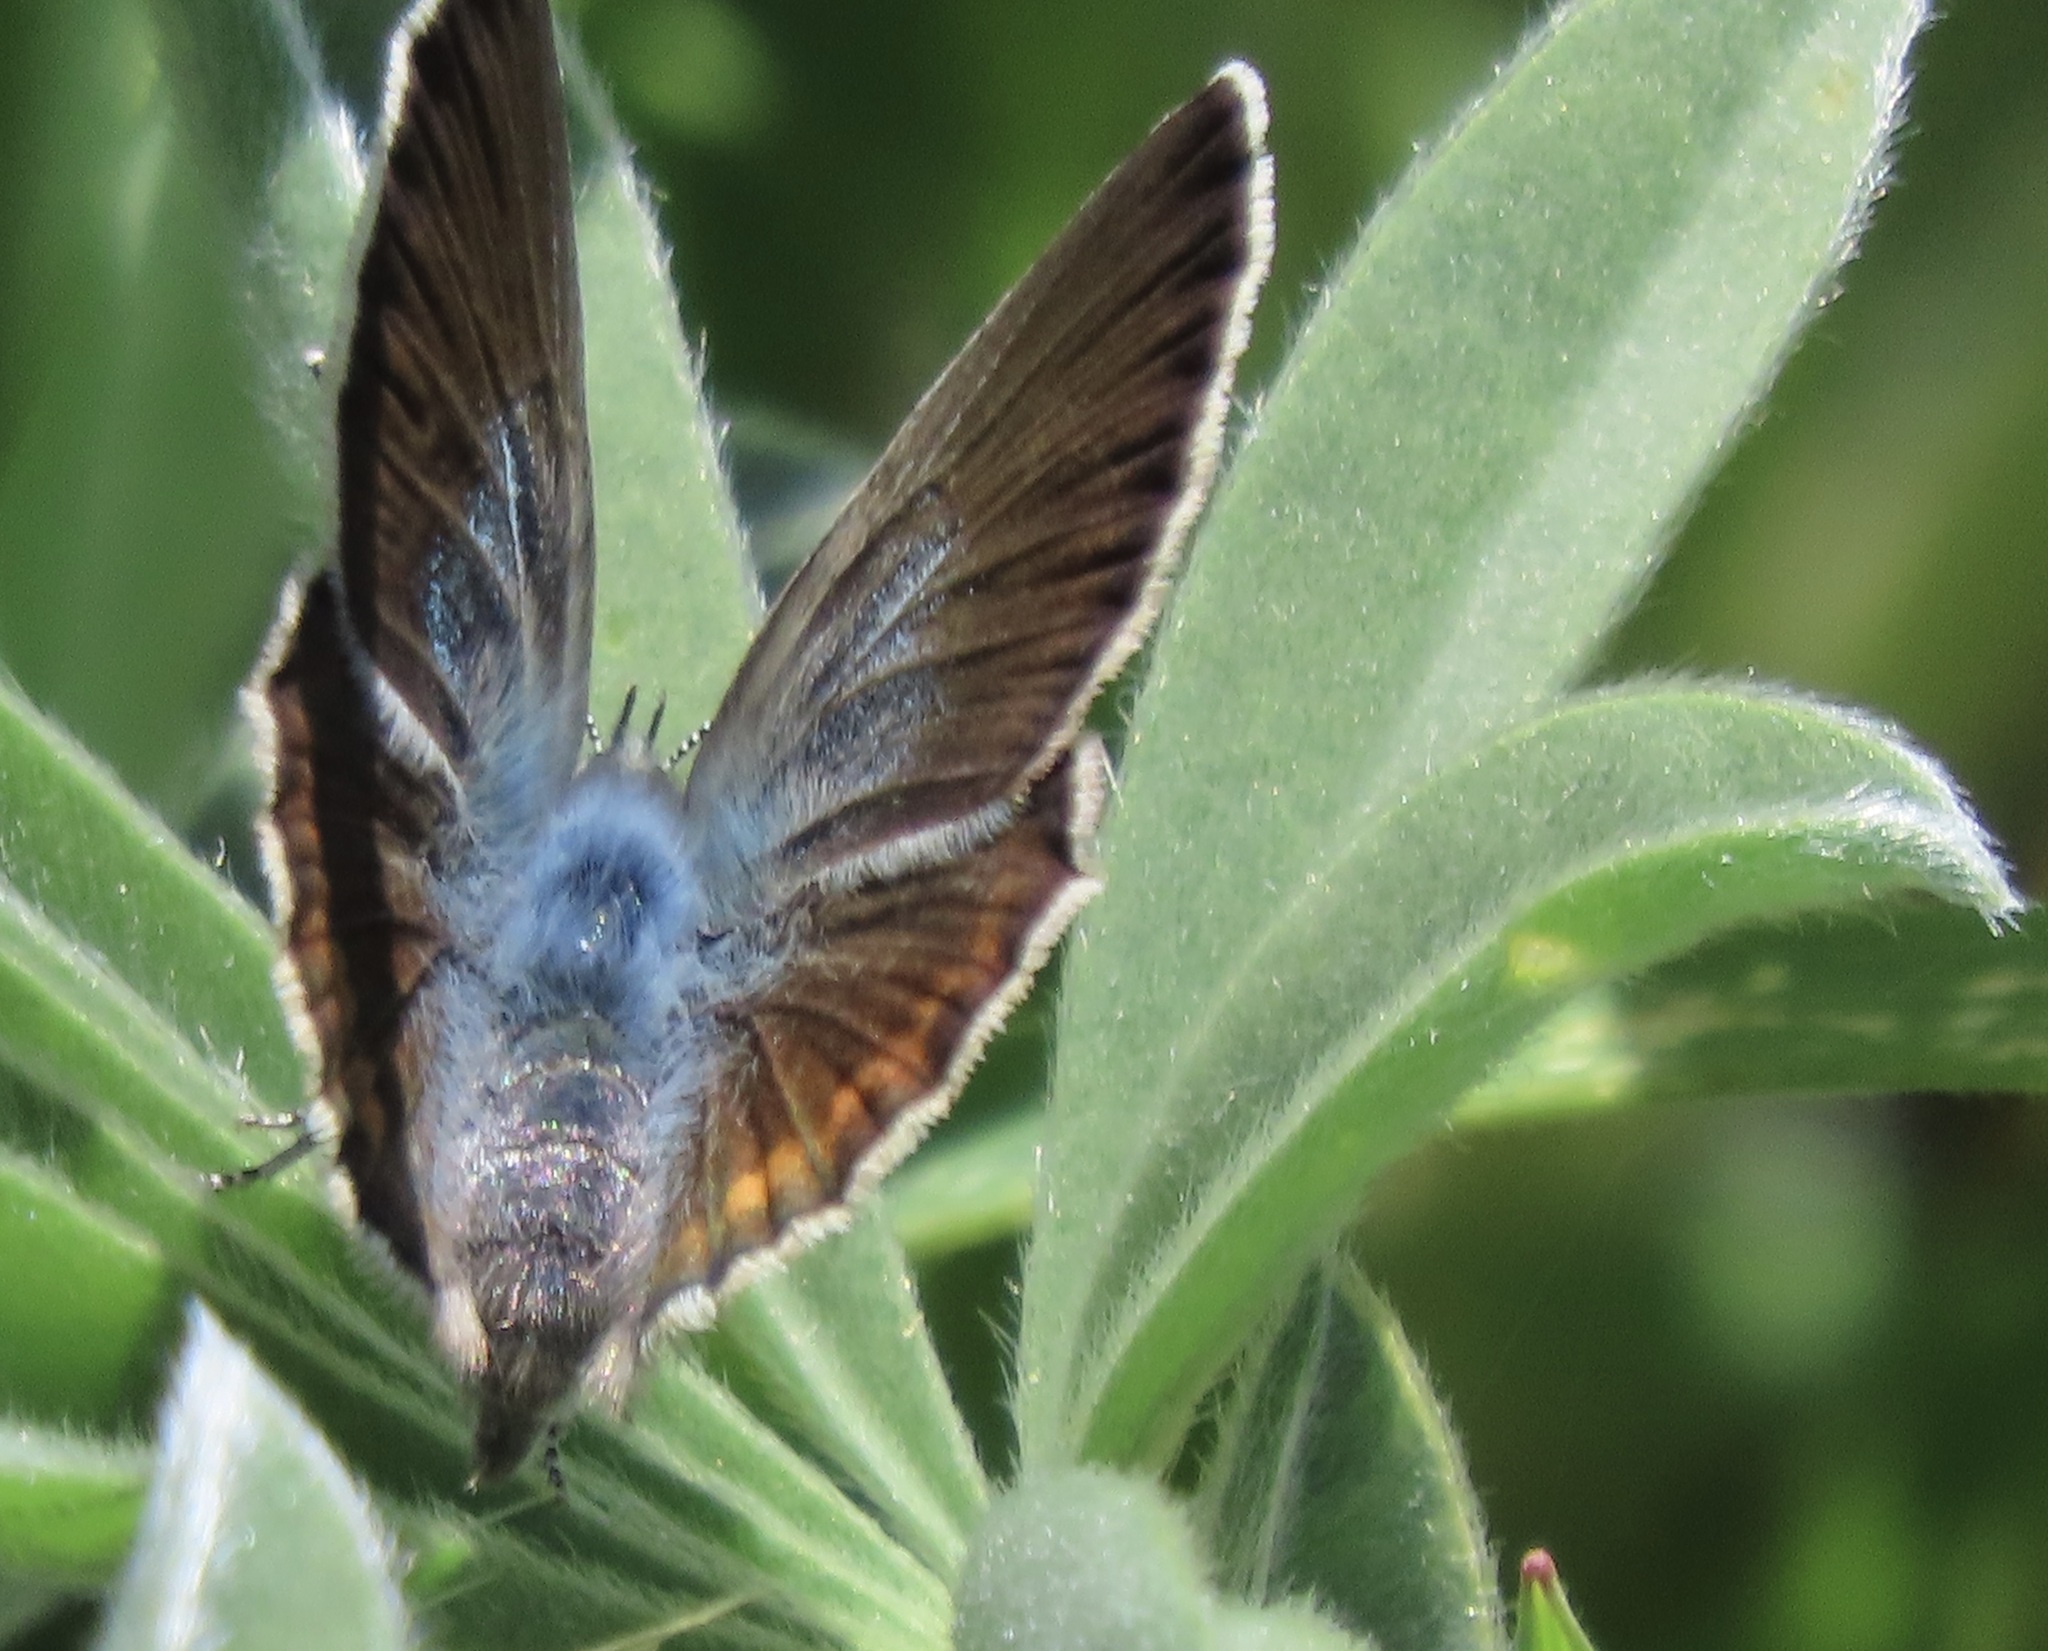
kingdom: Animalia
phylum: Arthropoda
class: Insecta
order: Lepidoptera
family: Lycaenidae
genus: Icaricia
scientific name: Icaricia icarioides
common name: Boisduval's blue
